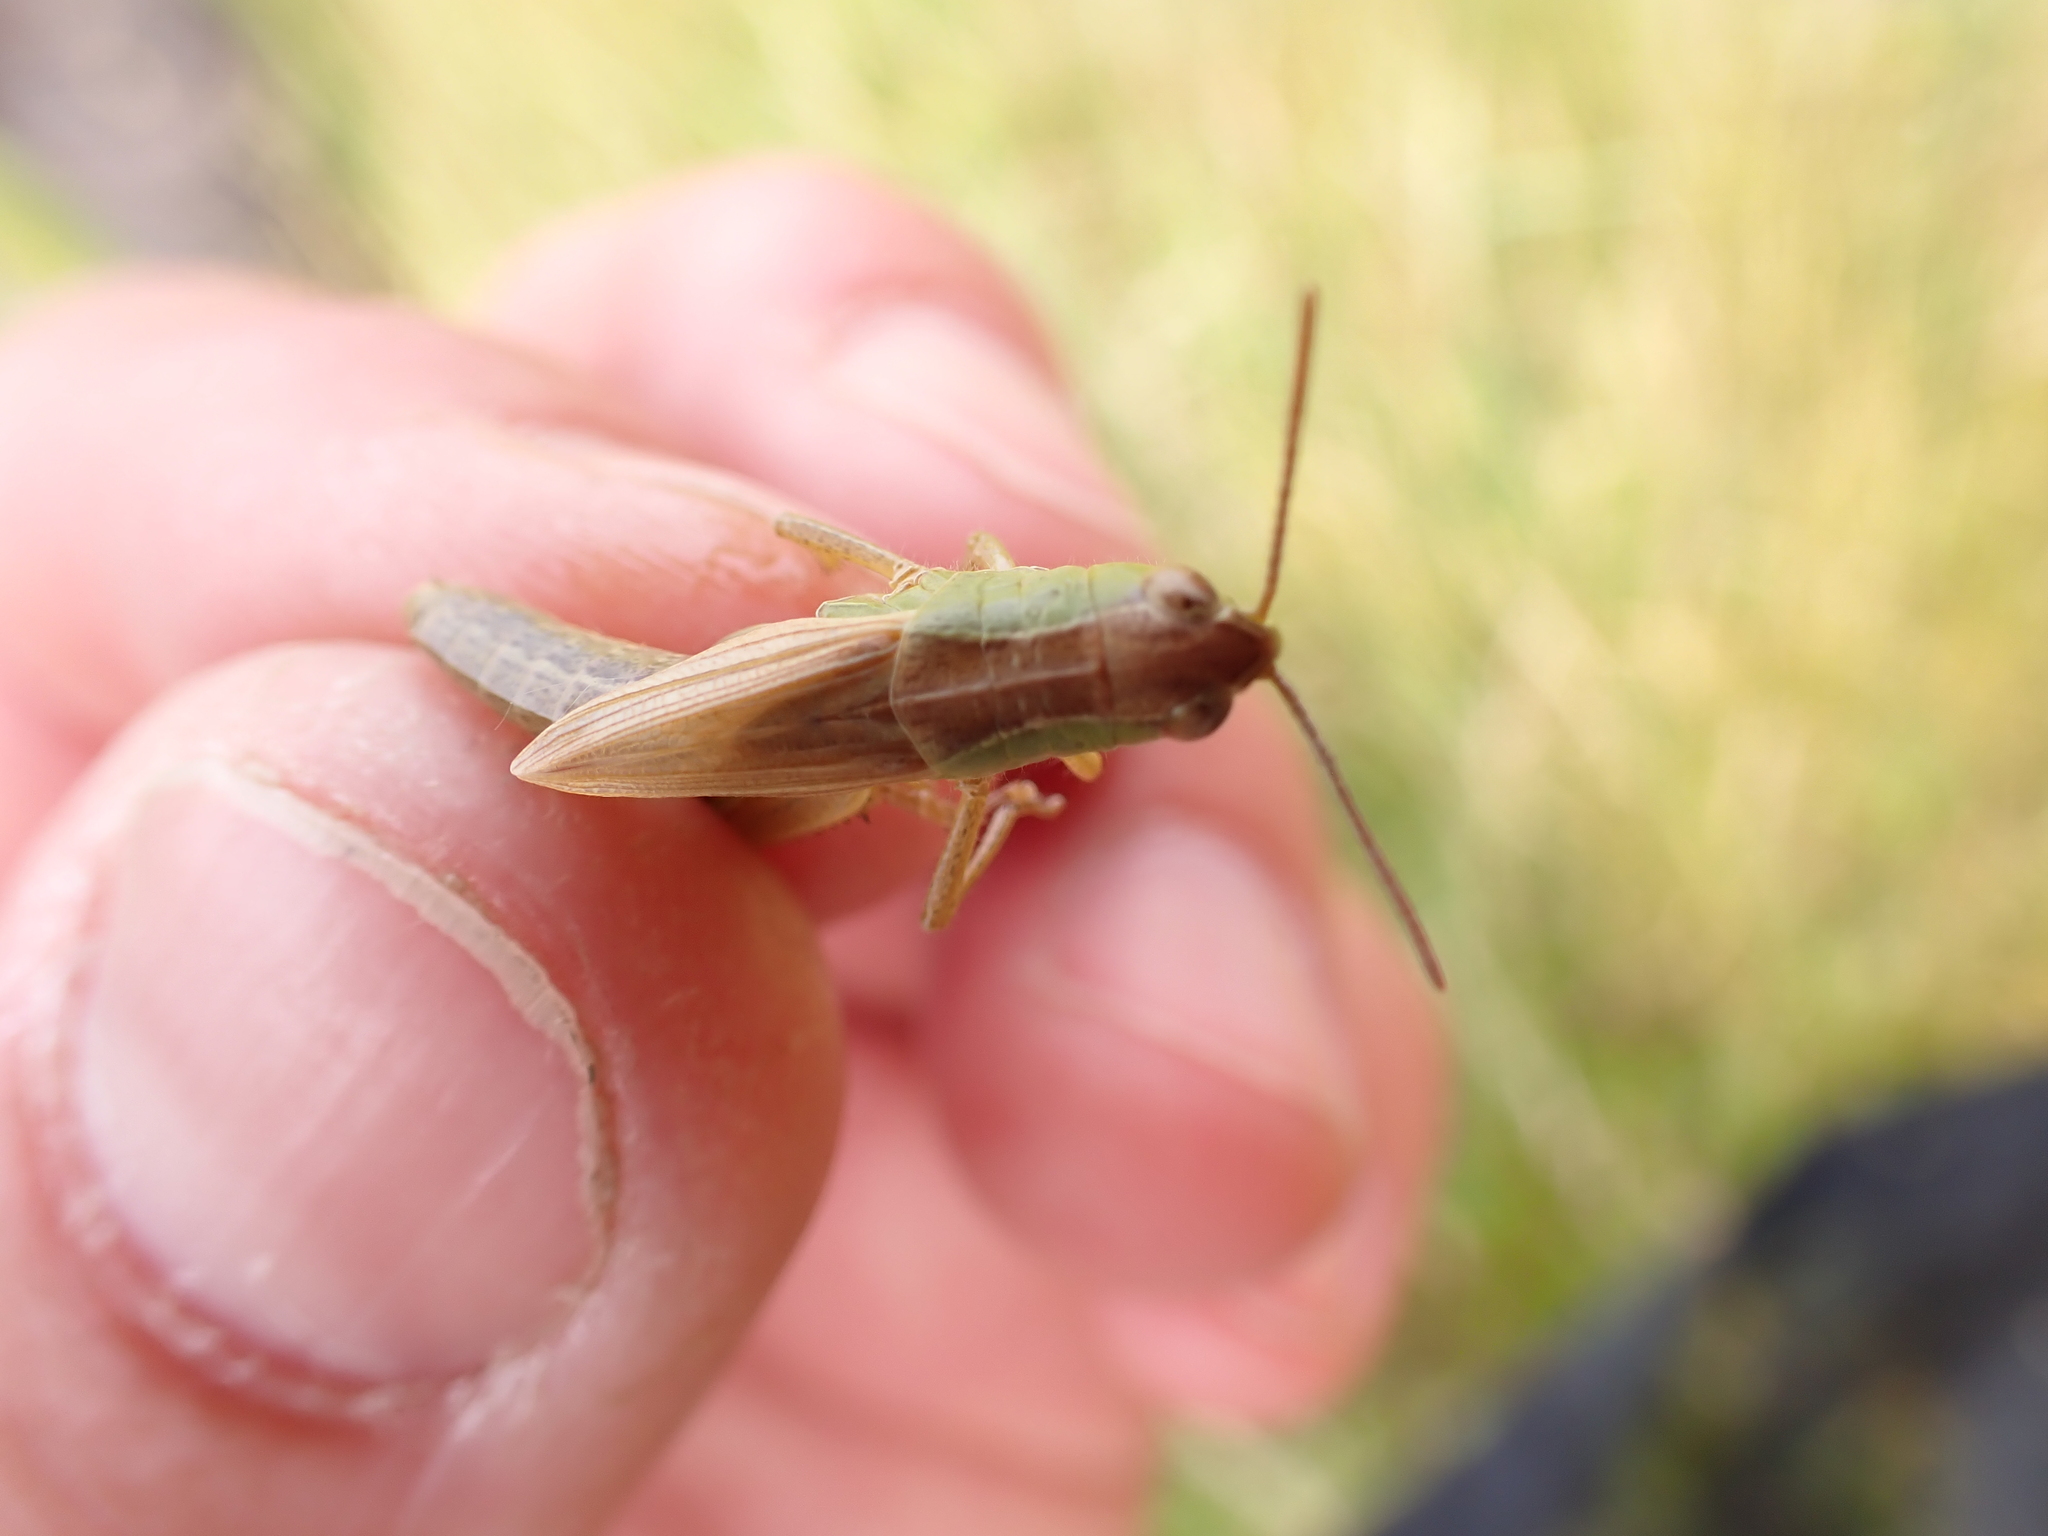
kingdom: Animalia
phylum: Arthropoda
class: Insecta
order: Orthoptera
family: Acrididae
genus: Pseudochorthippus
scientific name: Pseudochorthippus parallelus
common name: Meadow grasshopper
